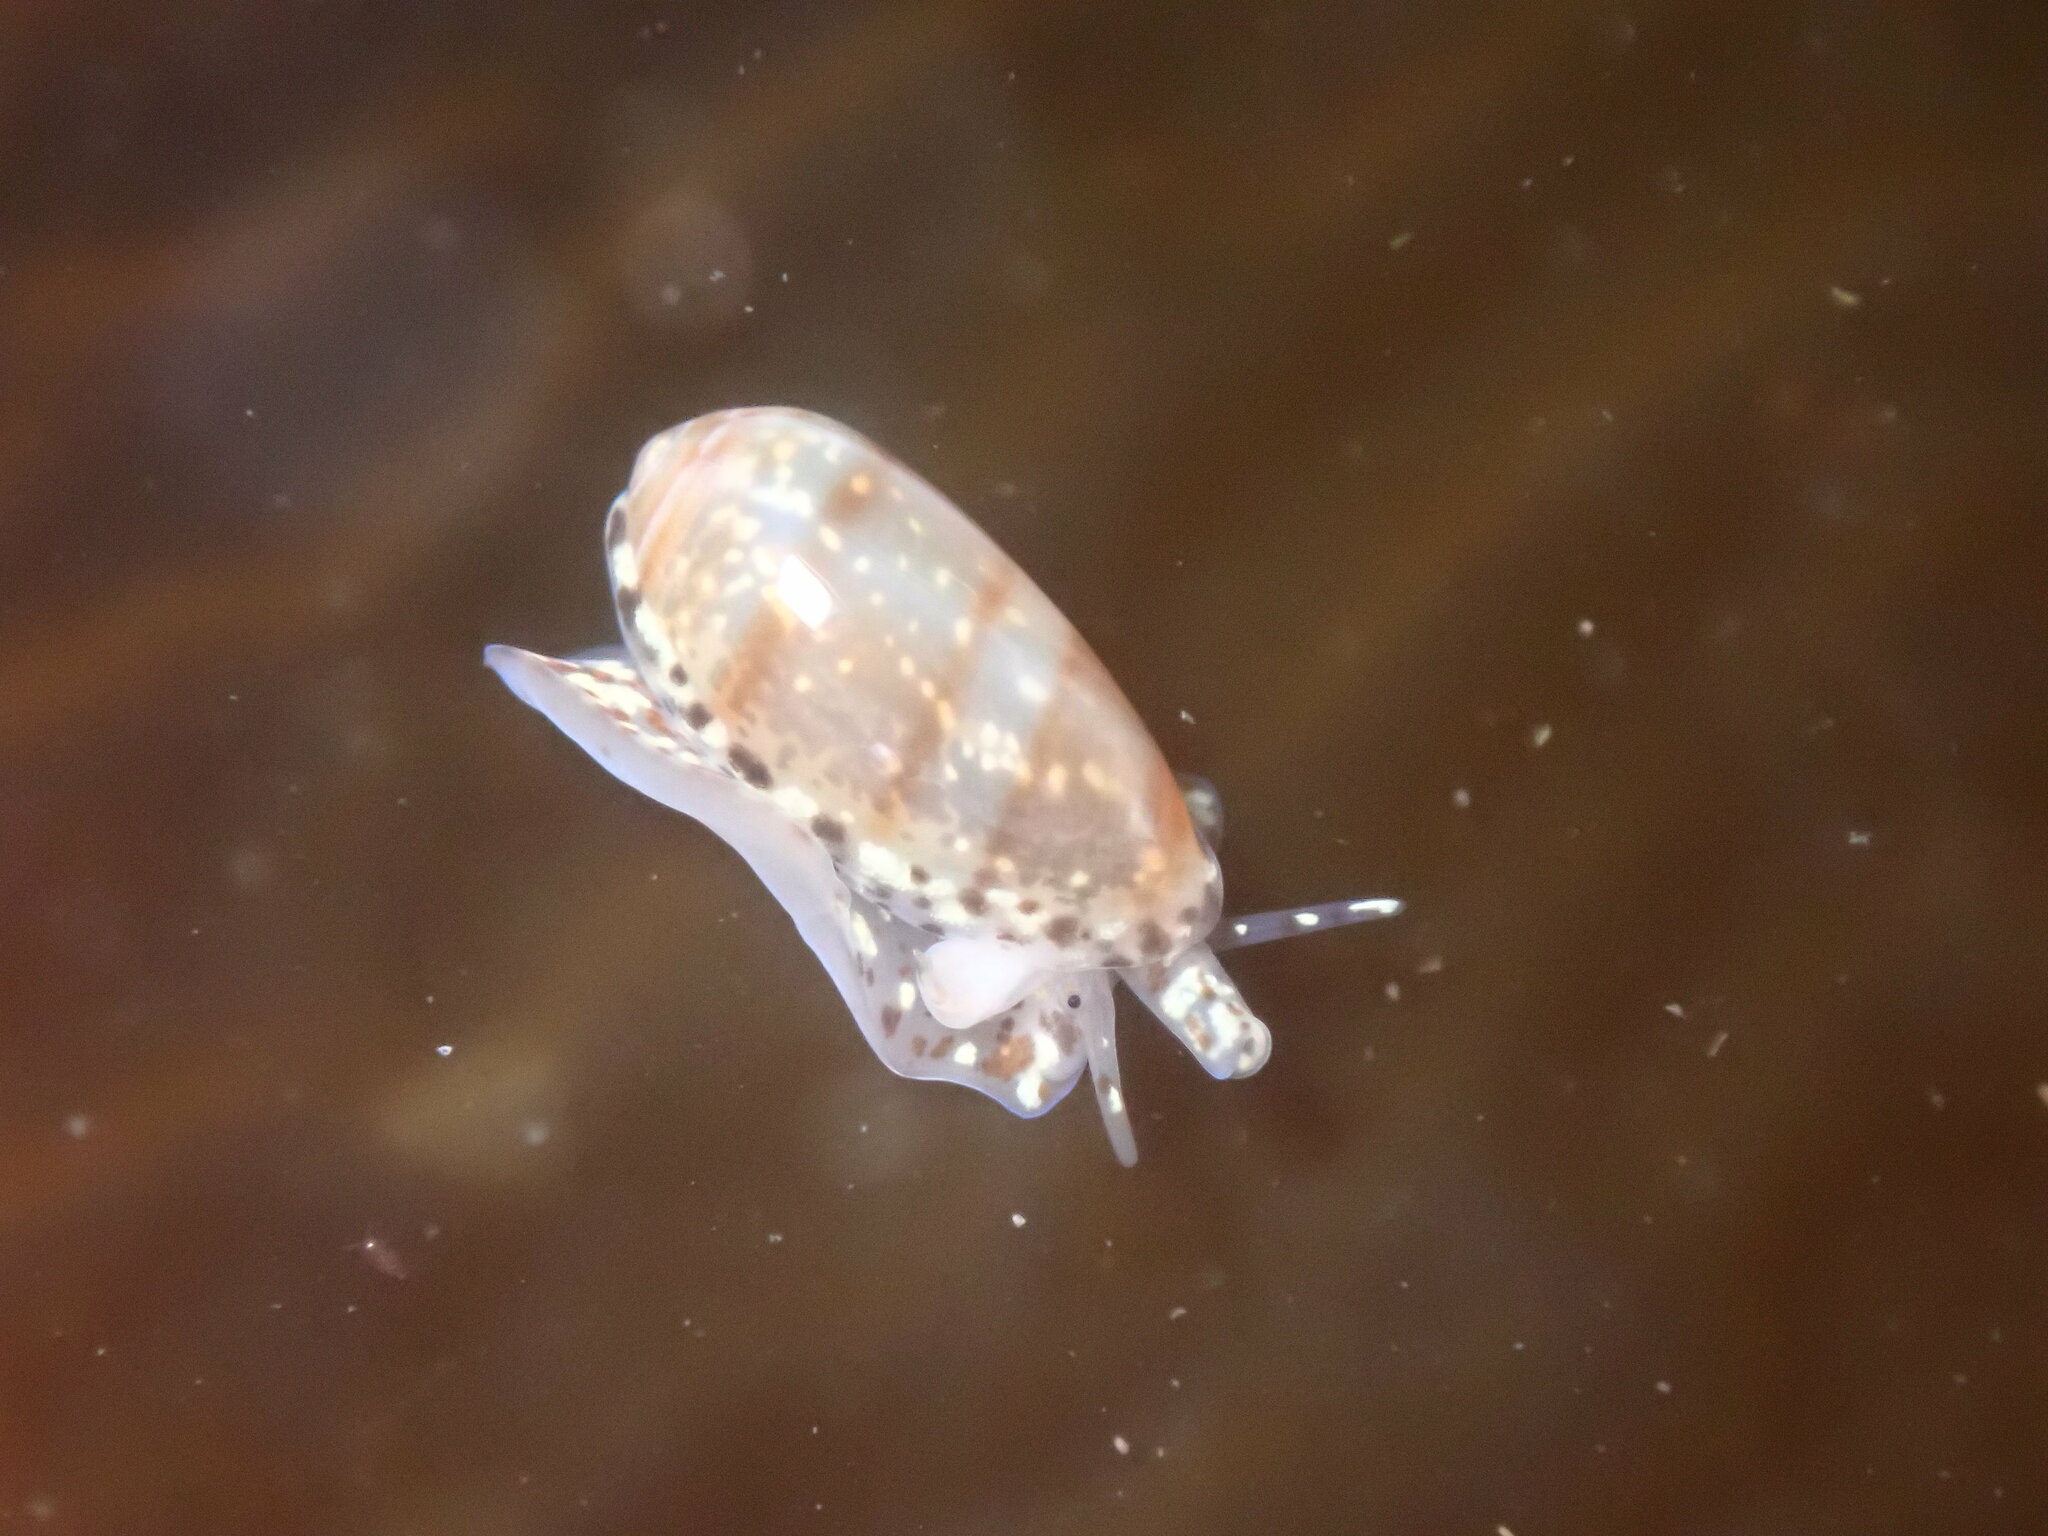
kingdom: Animalia
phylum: Mollusca
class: Gastropoda
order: Neogastropoda
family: Marginellidae
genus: Volvarina
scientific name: Volvarina taeniolata
